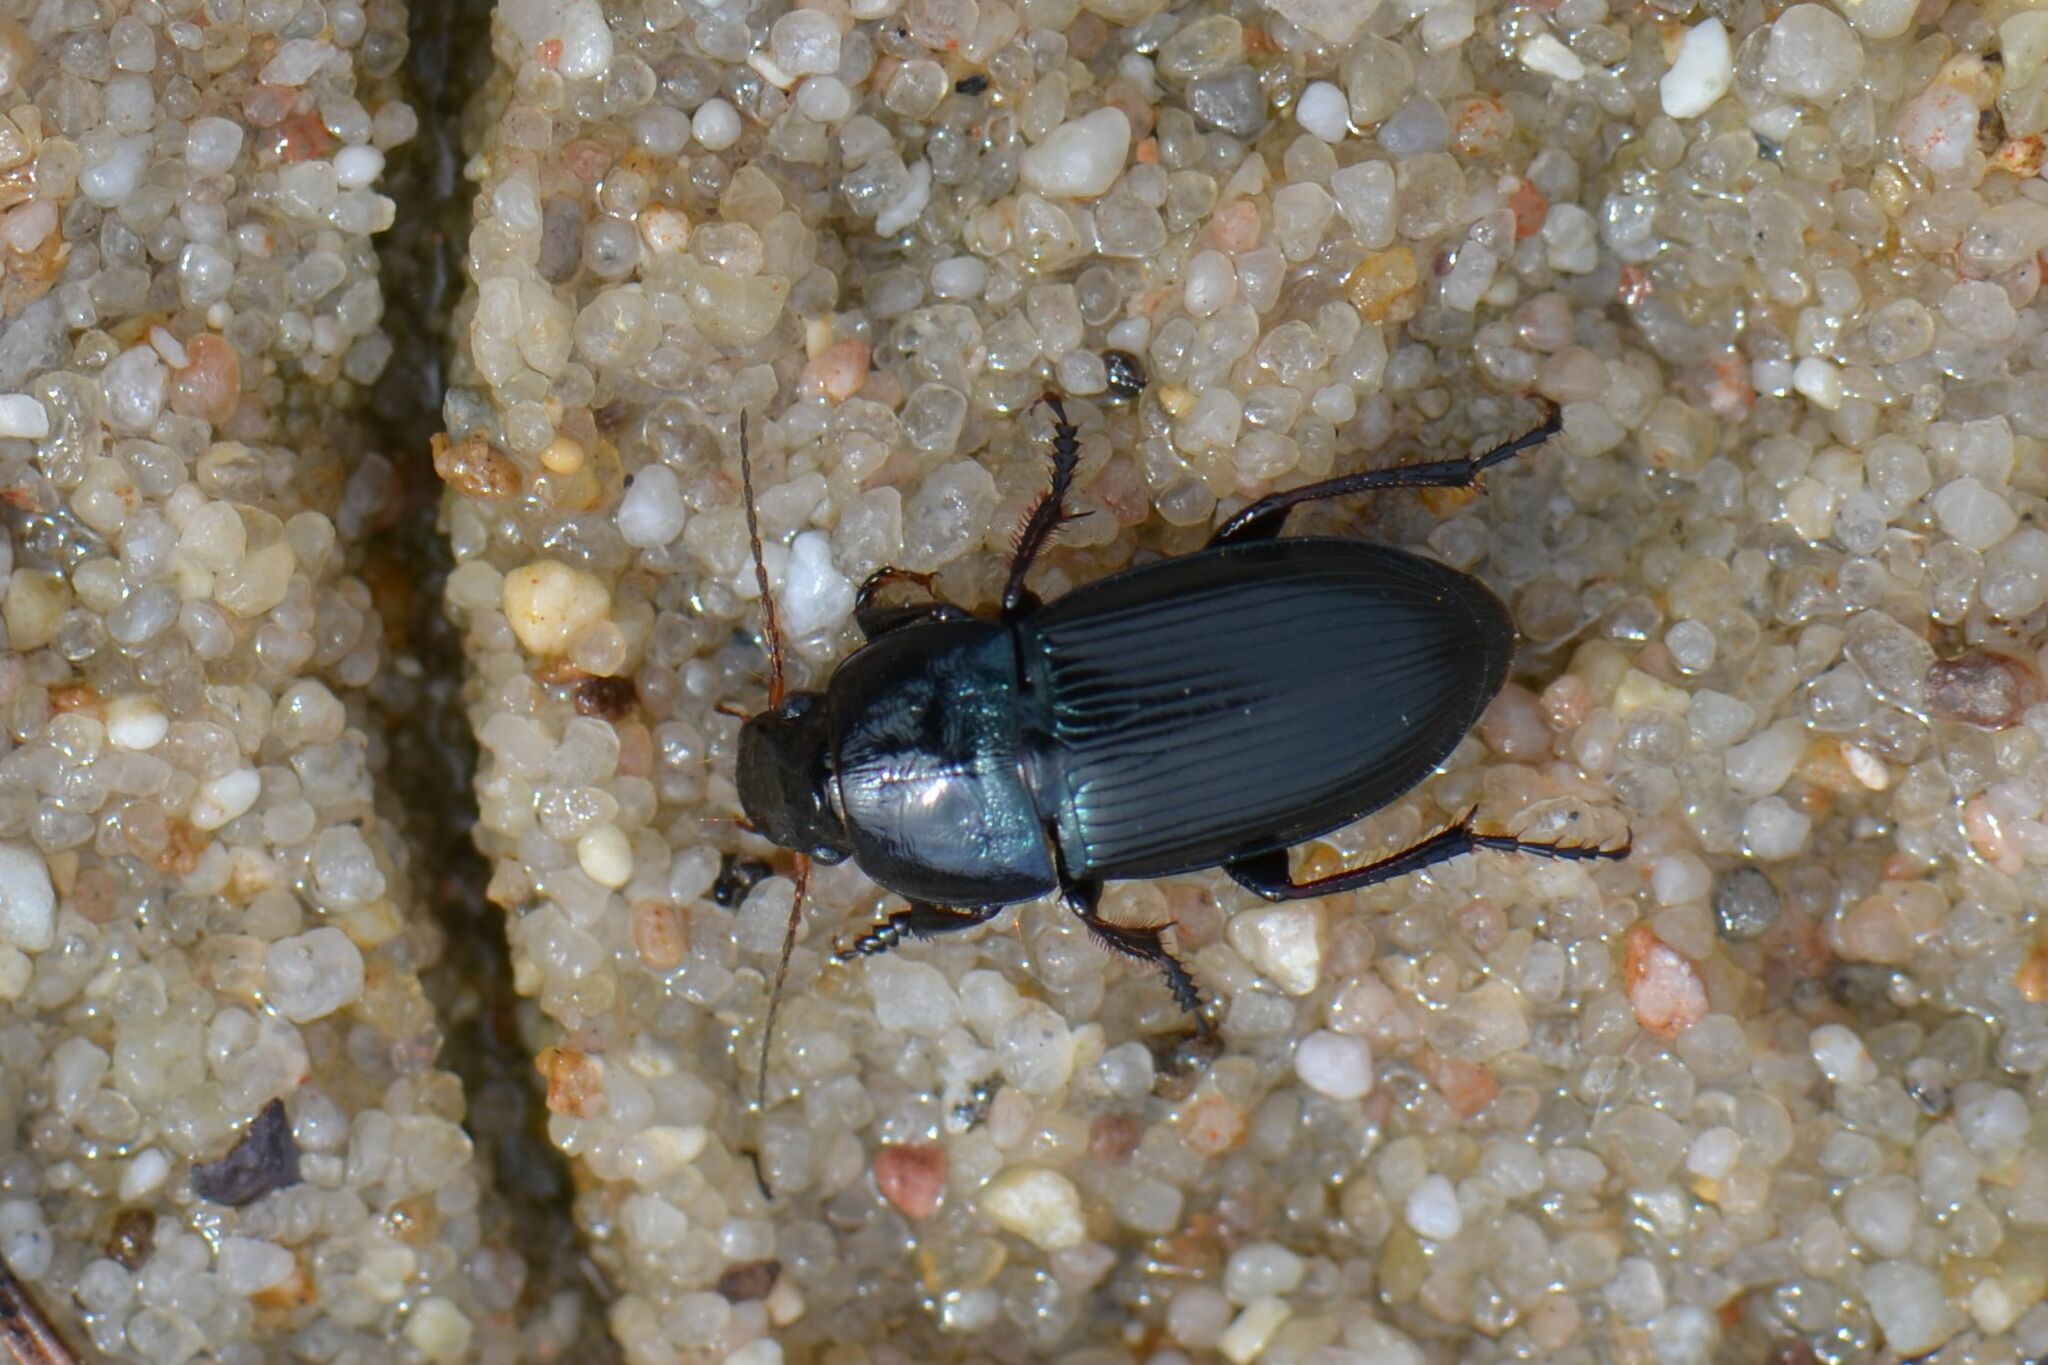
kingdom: Animalia
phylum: Arthropoda
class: Insecta
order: Coleoptera
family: Carabidae
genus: Harpalus
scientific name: Harpalus dimidiatus
